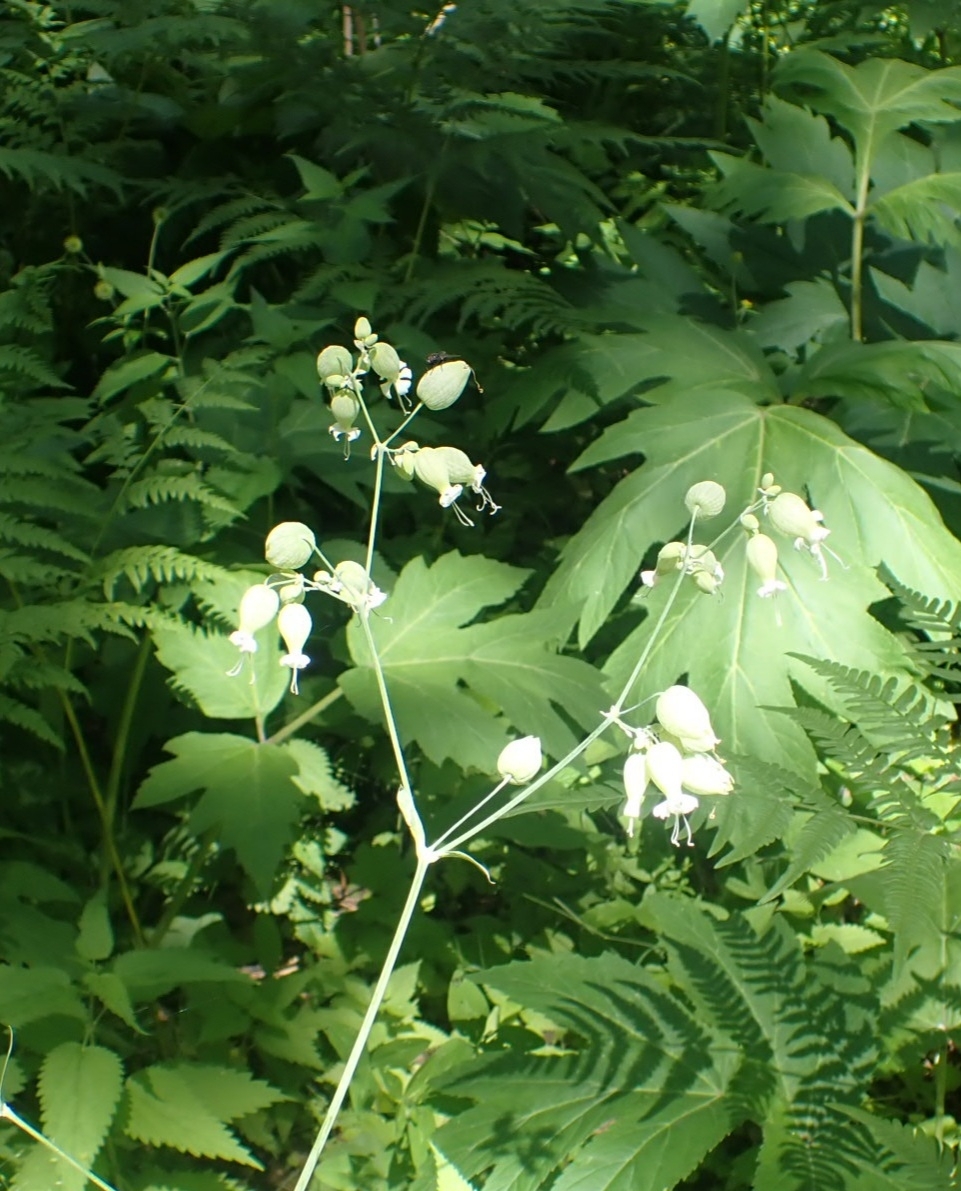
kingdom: Plantae
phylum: Tracheophyta
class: Magnoliopsida
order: Caryophyllales
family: Caryophyllaceae
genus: Silene
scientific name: Silene vulgaris
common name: Bladder campion
